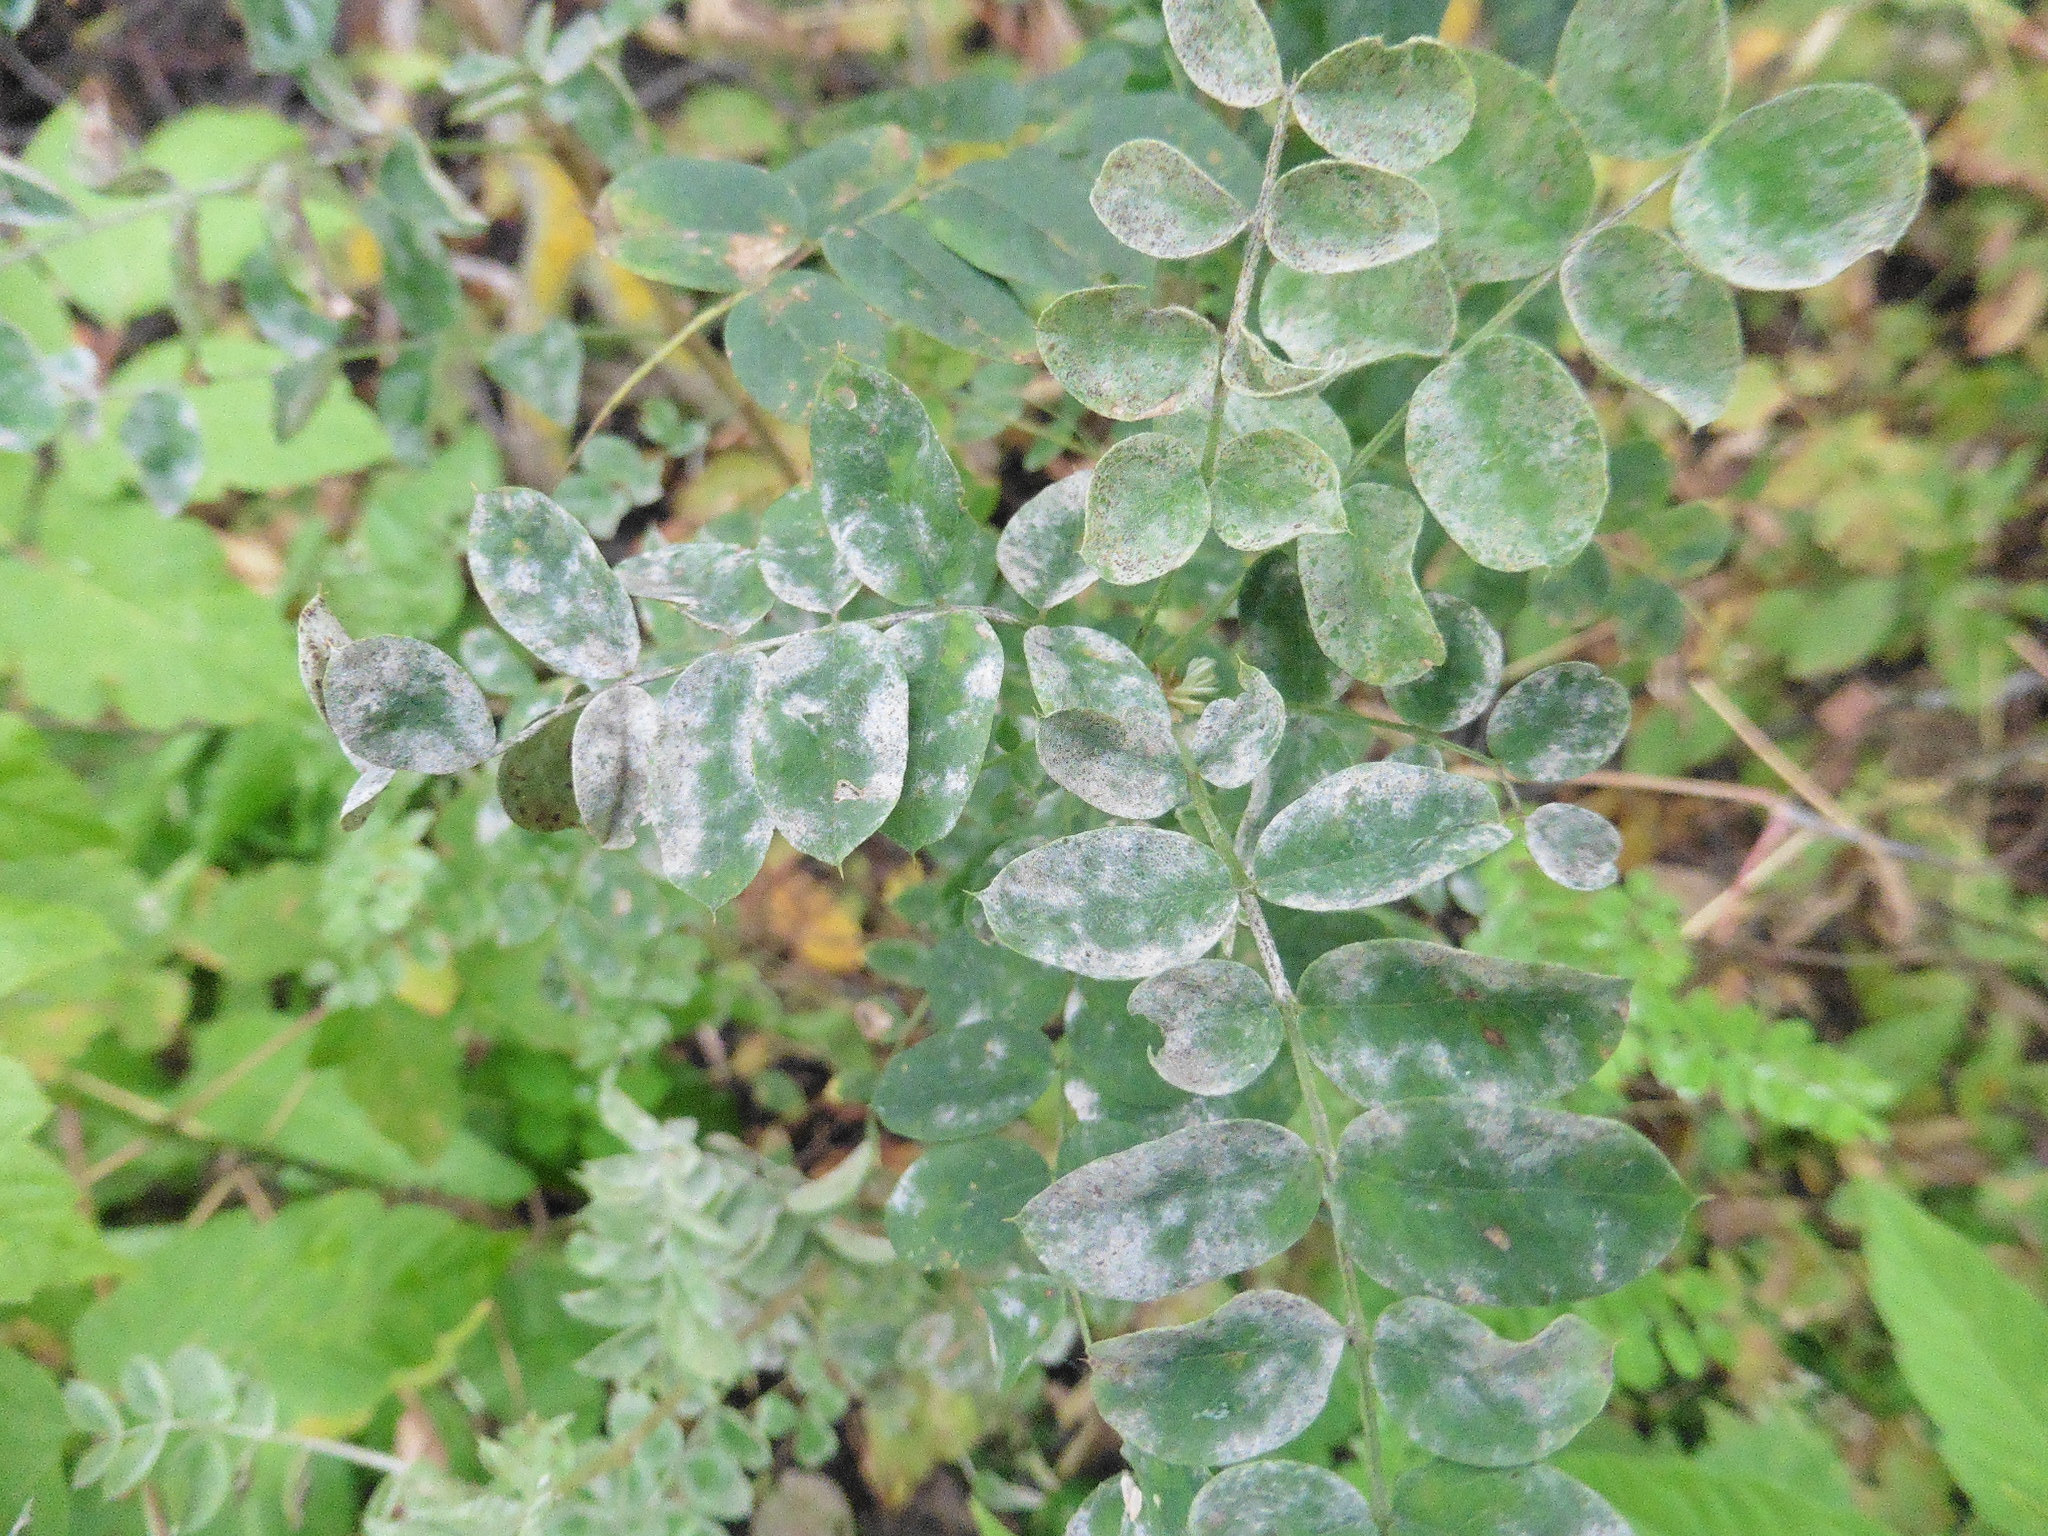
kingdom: Plantae
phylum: Tracheophyta
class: Magnoliopsida
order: Fabales
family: Fabaceae
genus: Caragana
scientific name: Caragana arborescens
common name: Siberian peashrub
